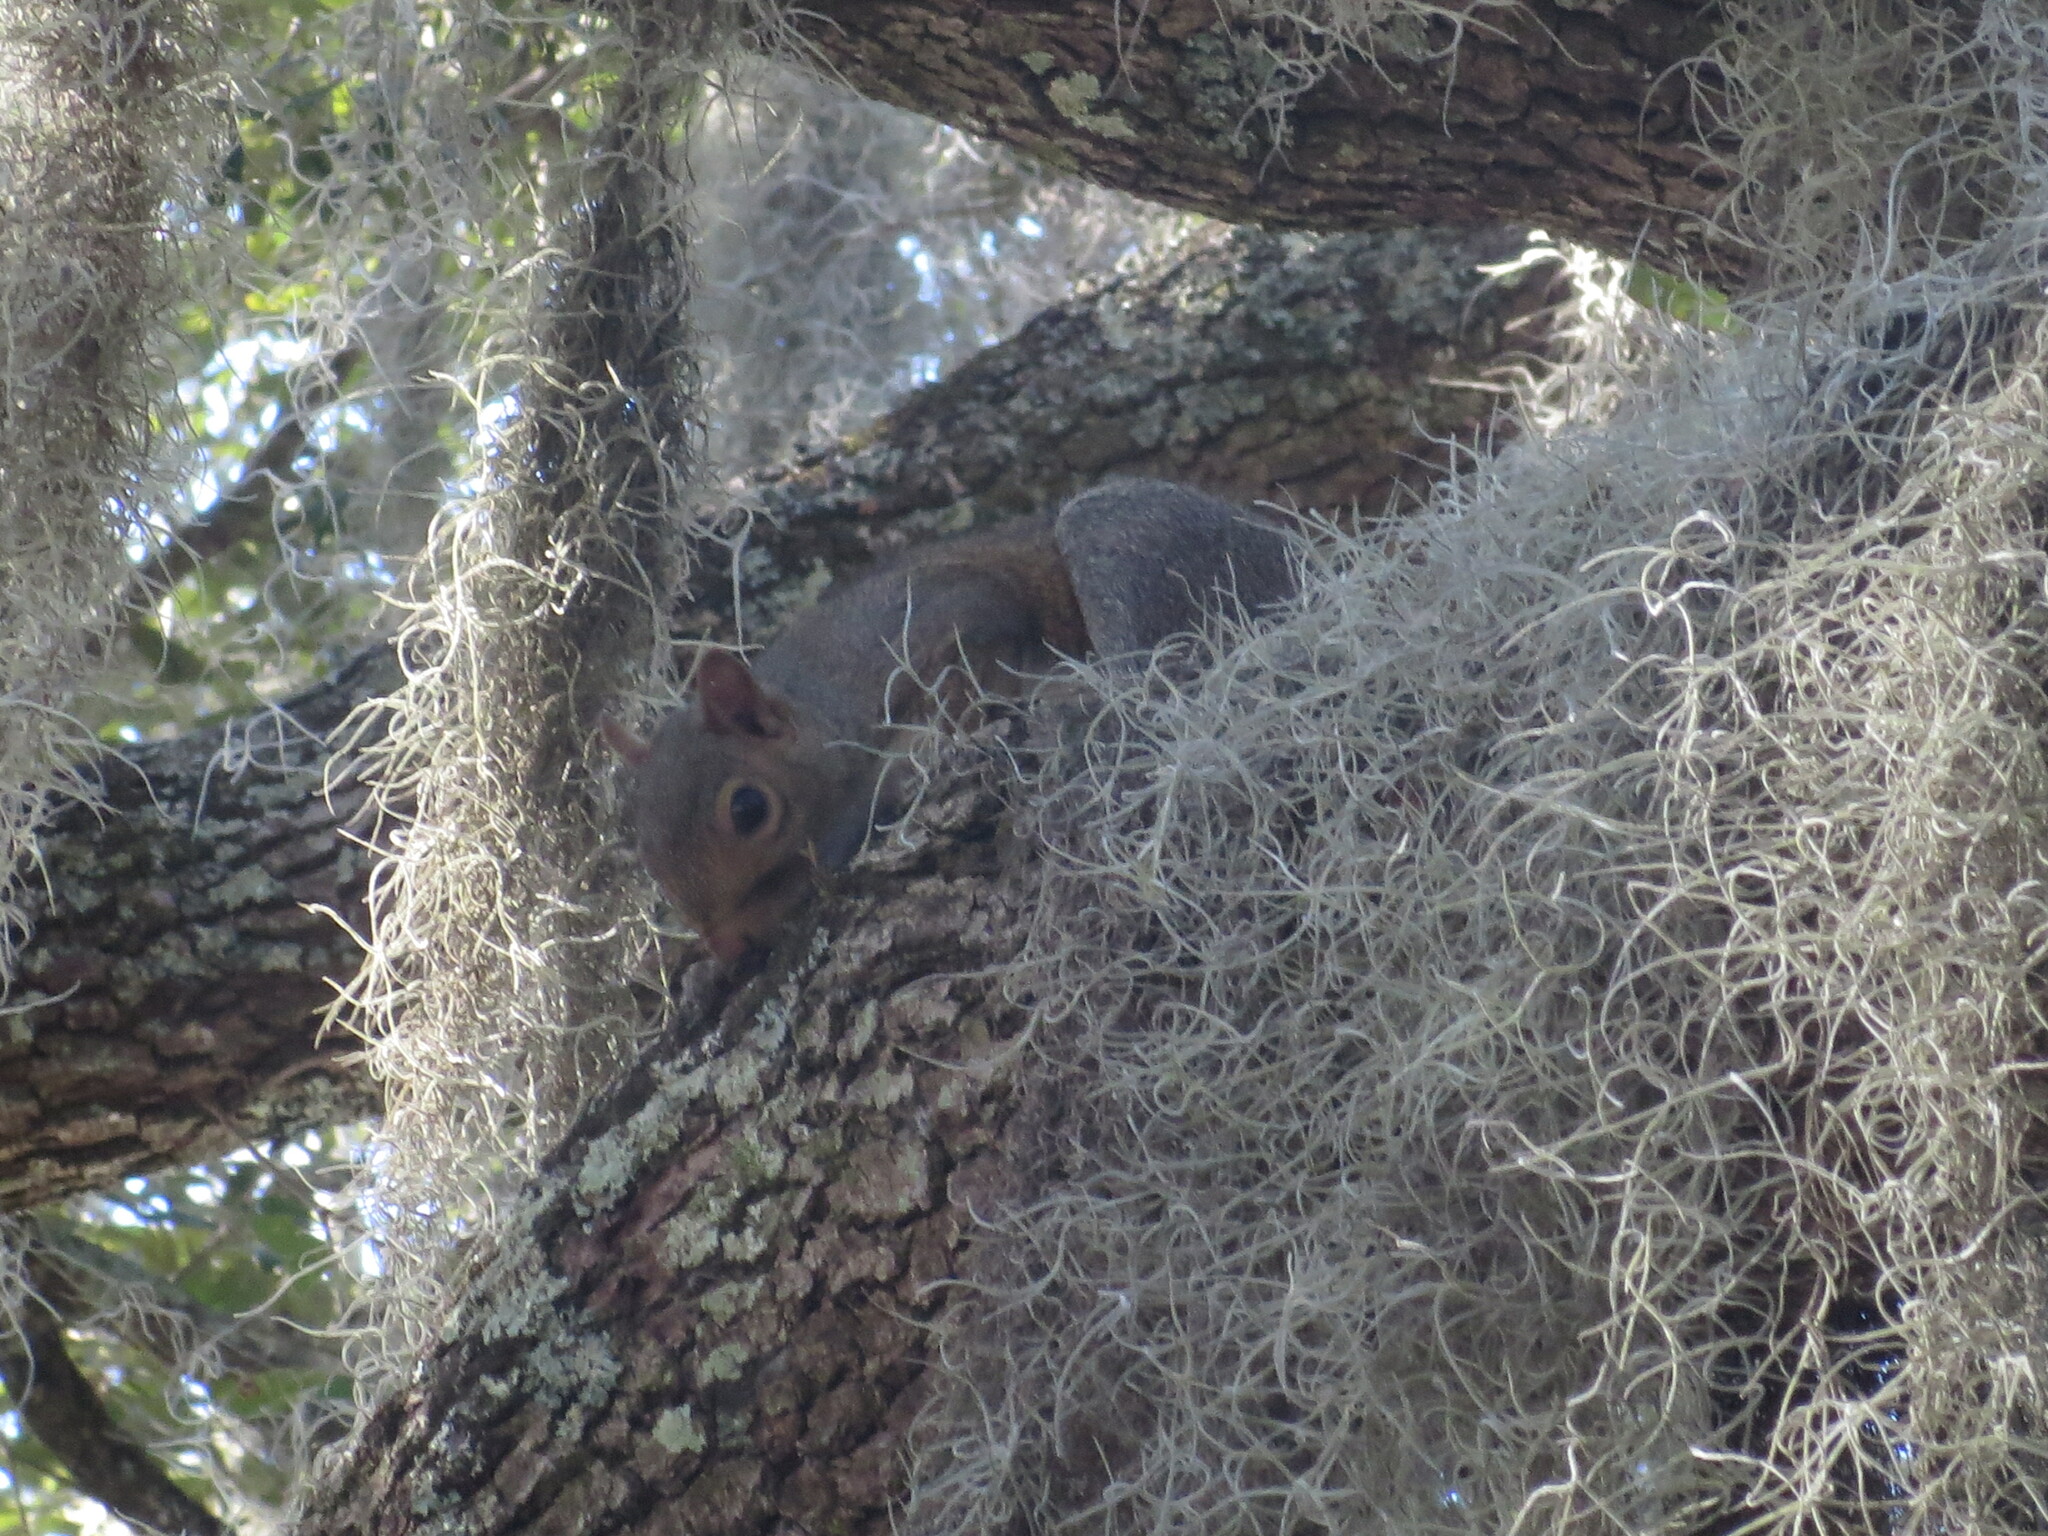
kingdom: Animalia
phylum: Chordata
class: Mammalia
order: Rodentia
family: Sciuridae
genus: Sciurus
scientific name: Sciurus carolinensis
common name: Eastern gray squirrel
